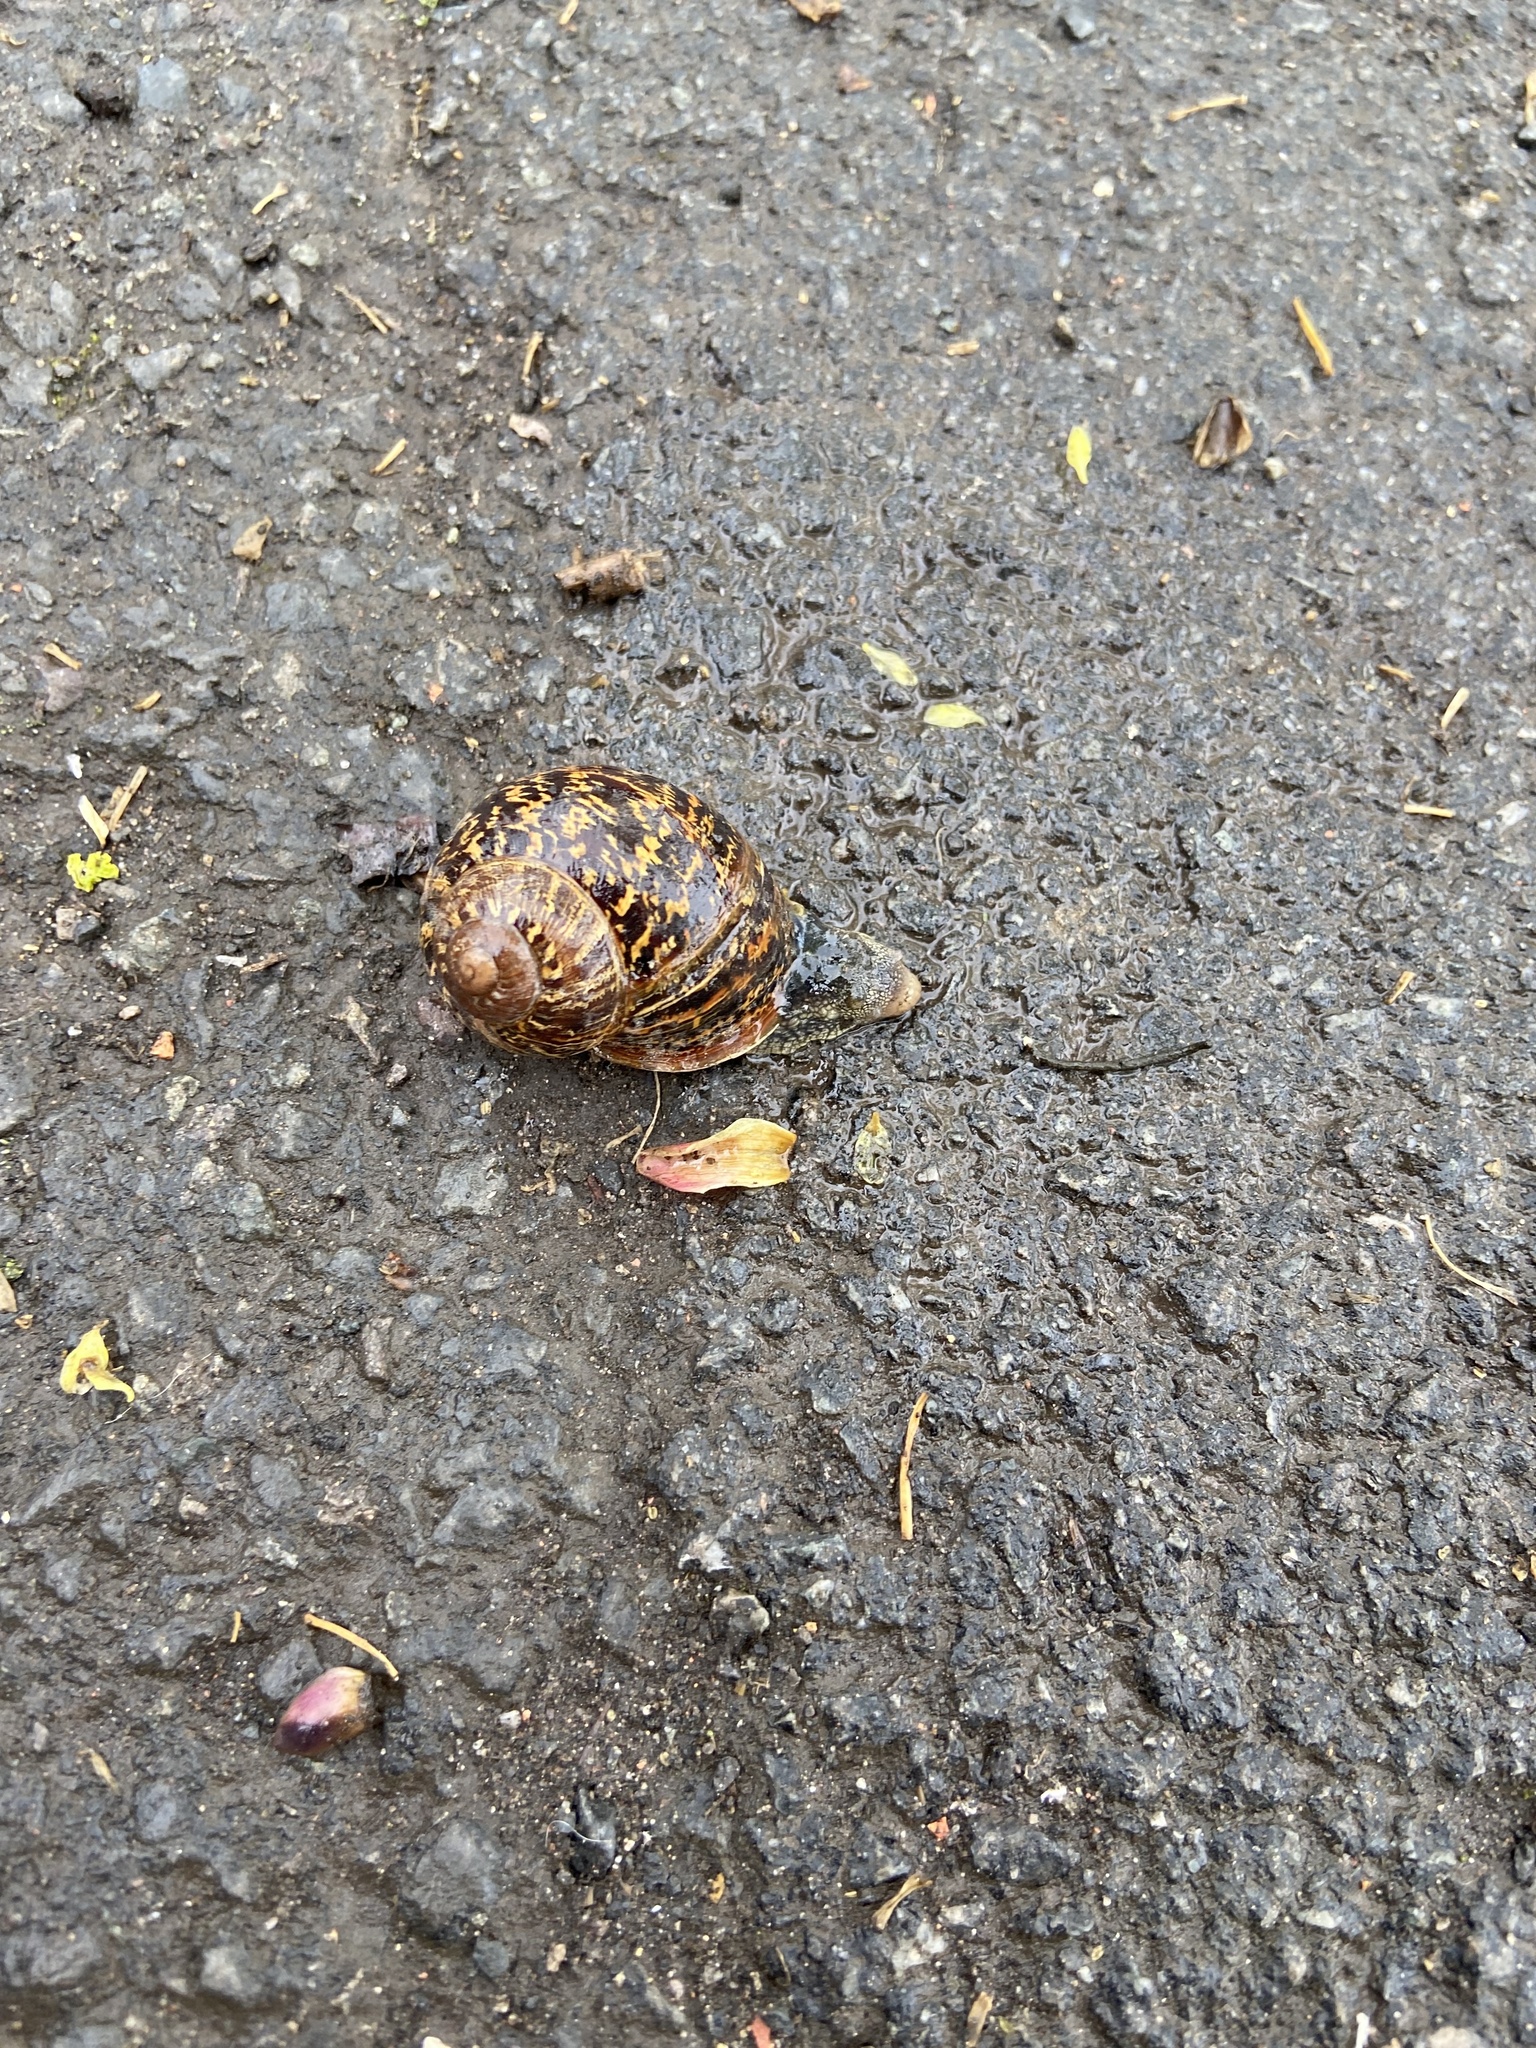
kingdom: Animalia
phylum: Mollusca
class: Gastropoda
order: Stylommatophora
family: Helicidae
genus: Cornu
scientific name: Cornu aspersum
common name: Brown garden snail
